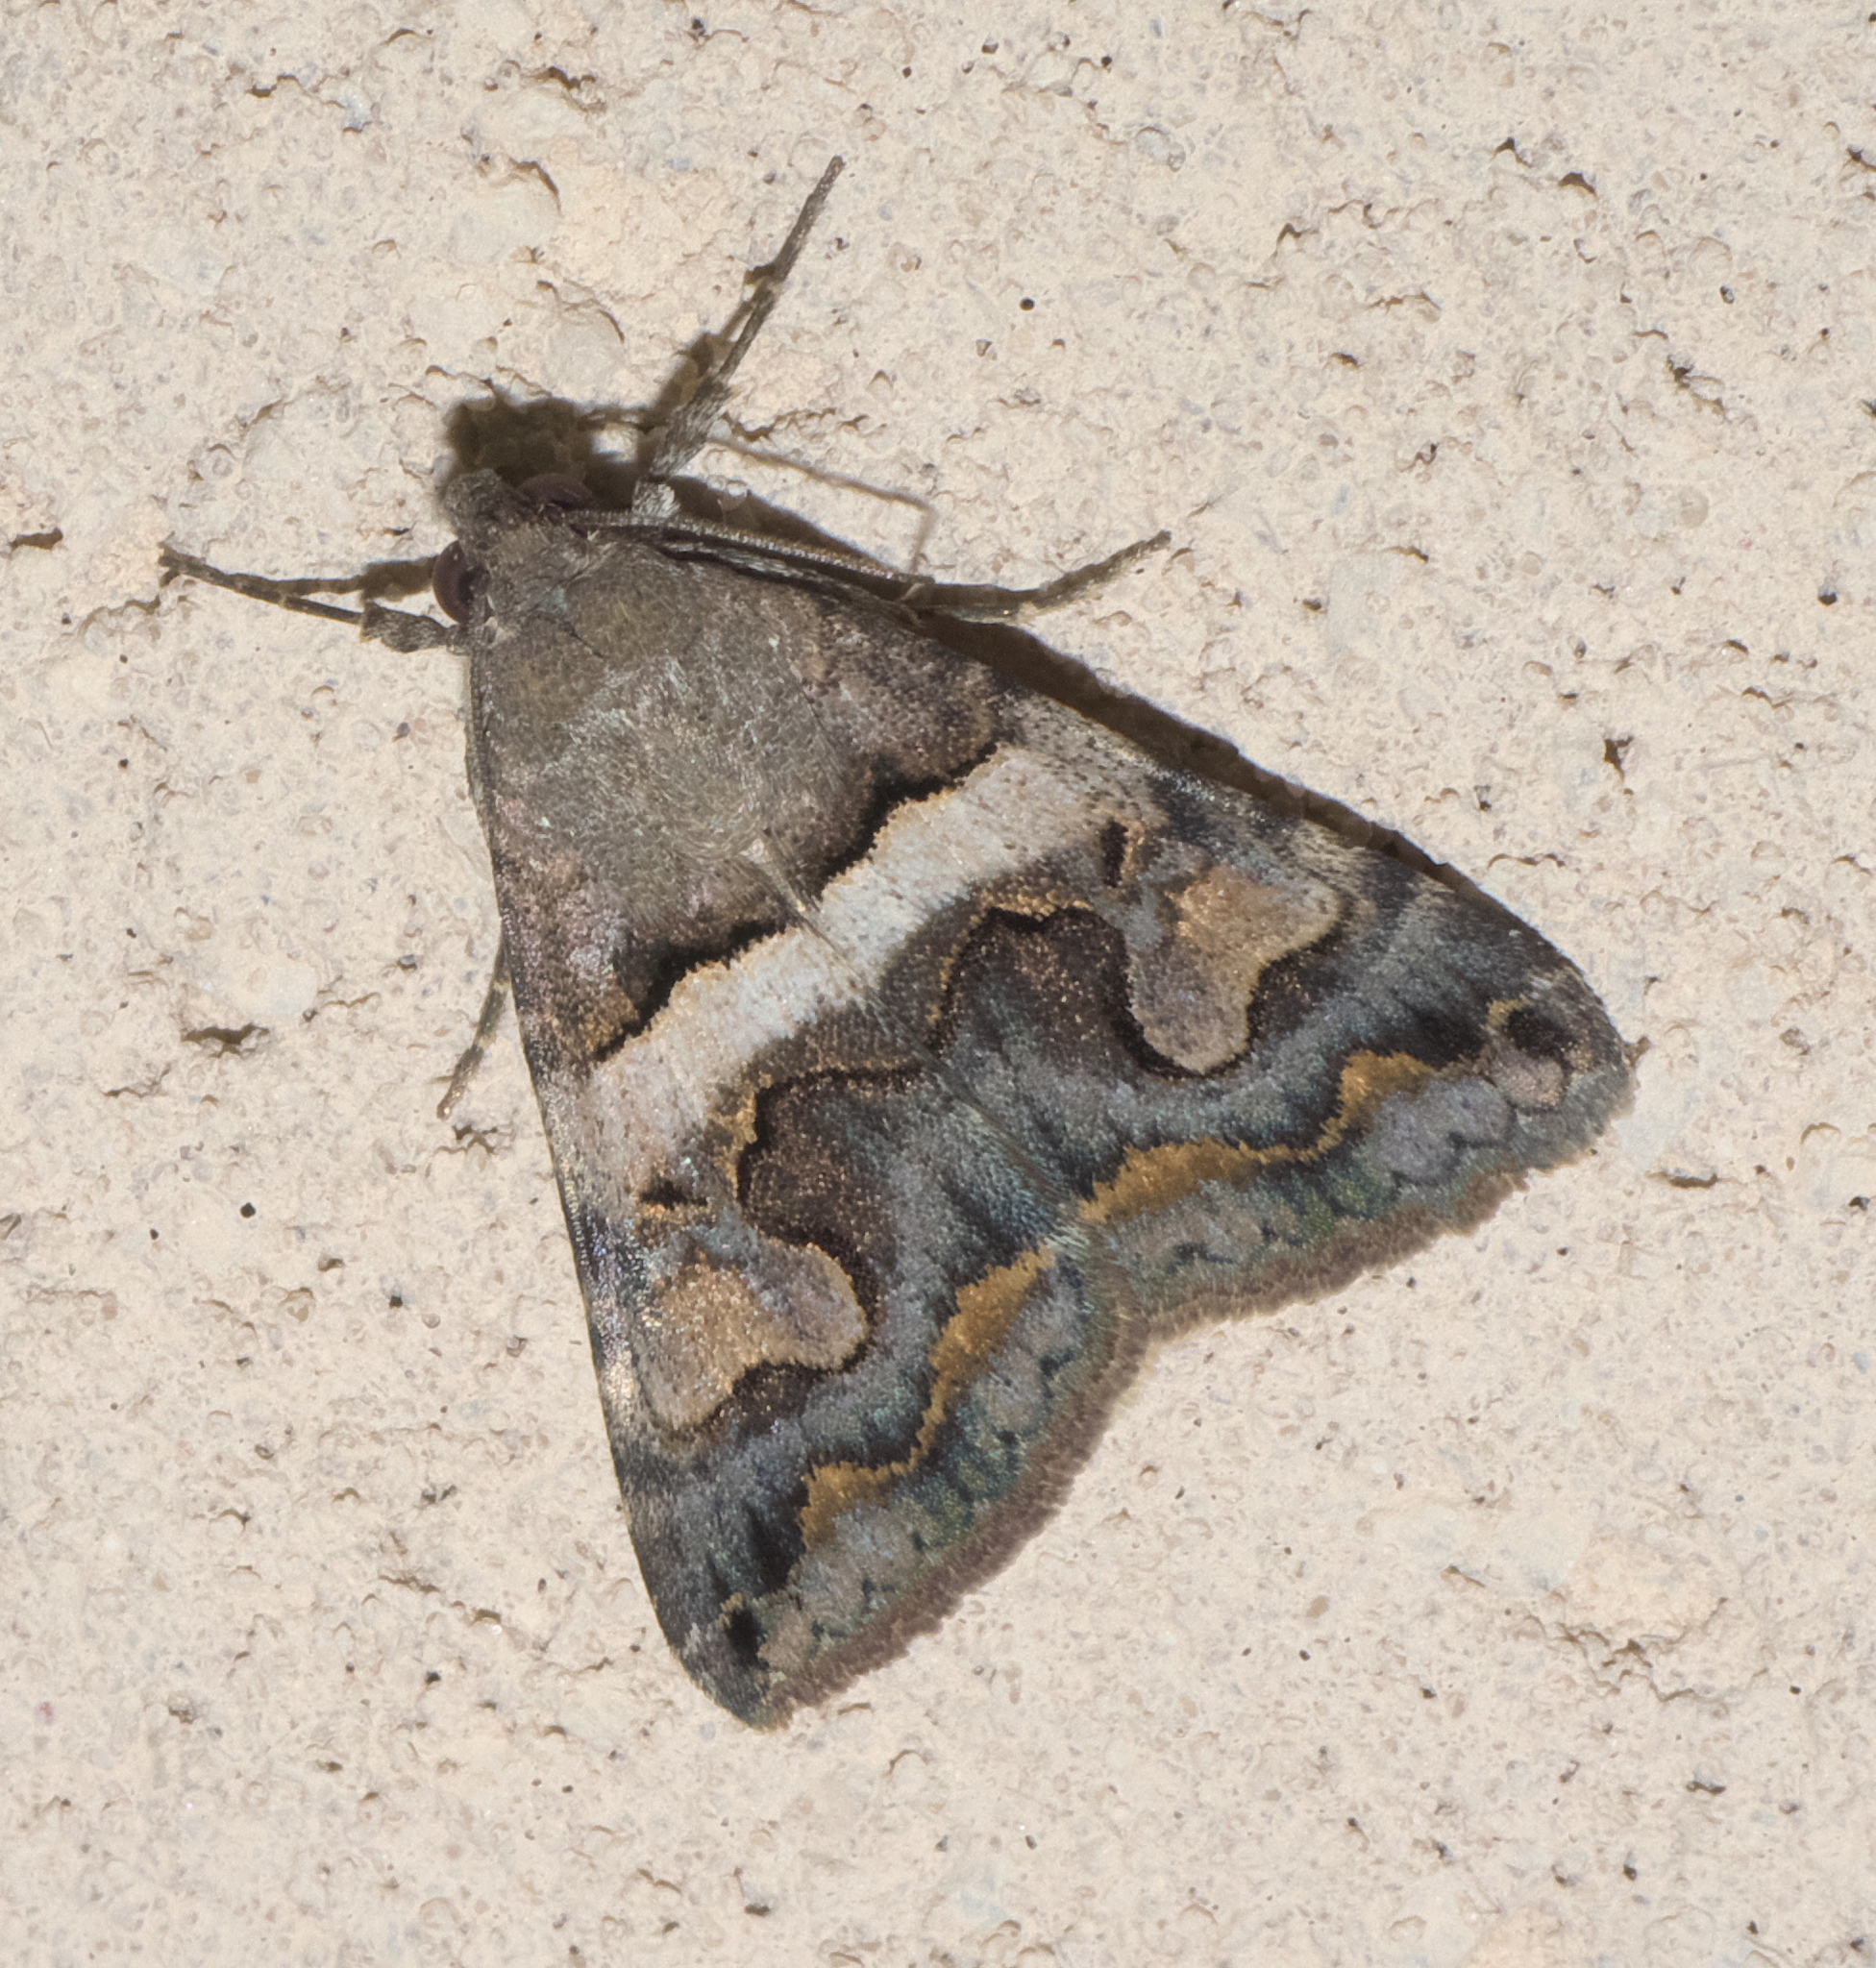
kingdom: Animalia
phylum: Arthropoda
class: Insecta
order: Lepidoptera
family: Erebidae
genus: Bulia
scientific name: Bulia deducta
